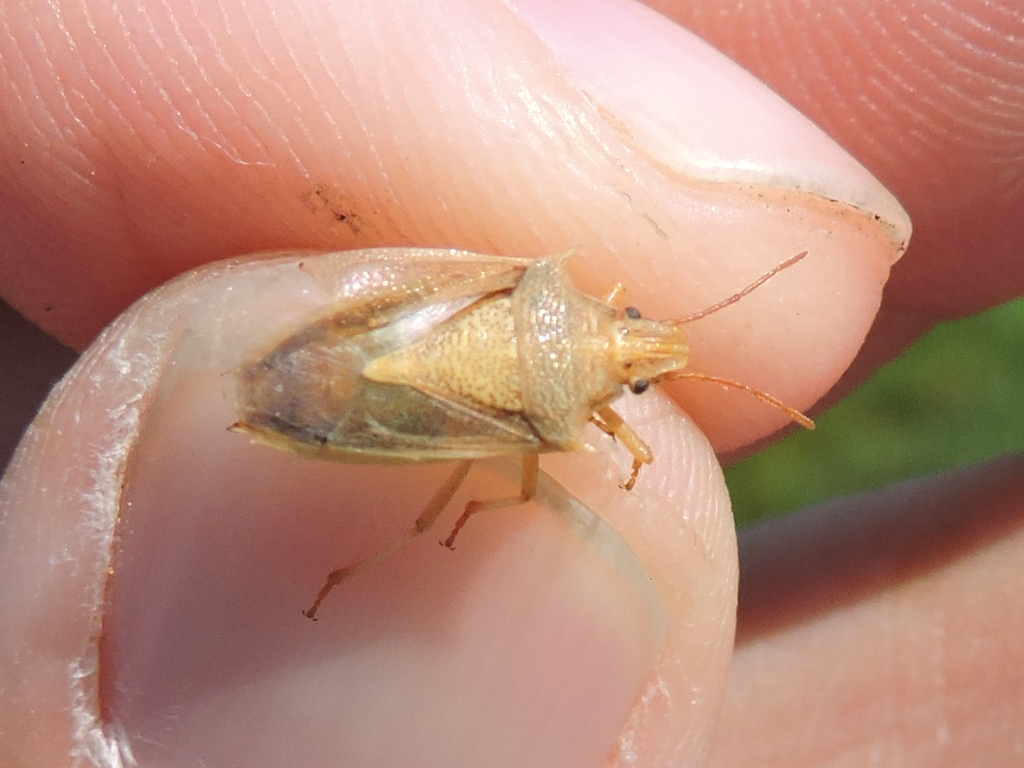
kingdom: Animalia
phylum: Arthropoda
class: Insecta
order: Hemiptera
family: Pentatomidae
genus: Oebalus
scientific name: Oebalus pugnax
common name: Rice stink bug
